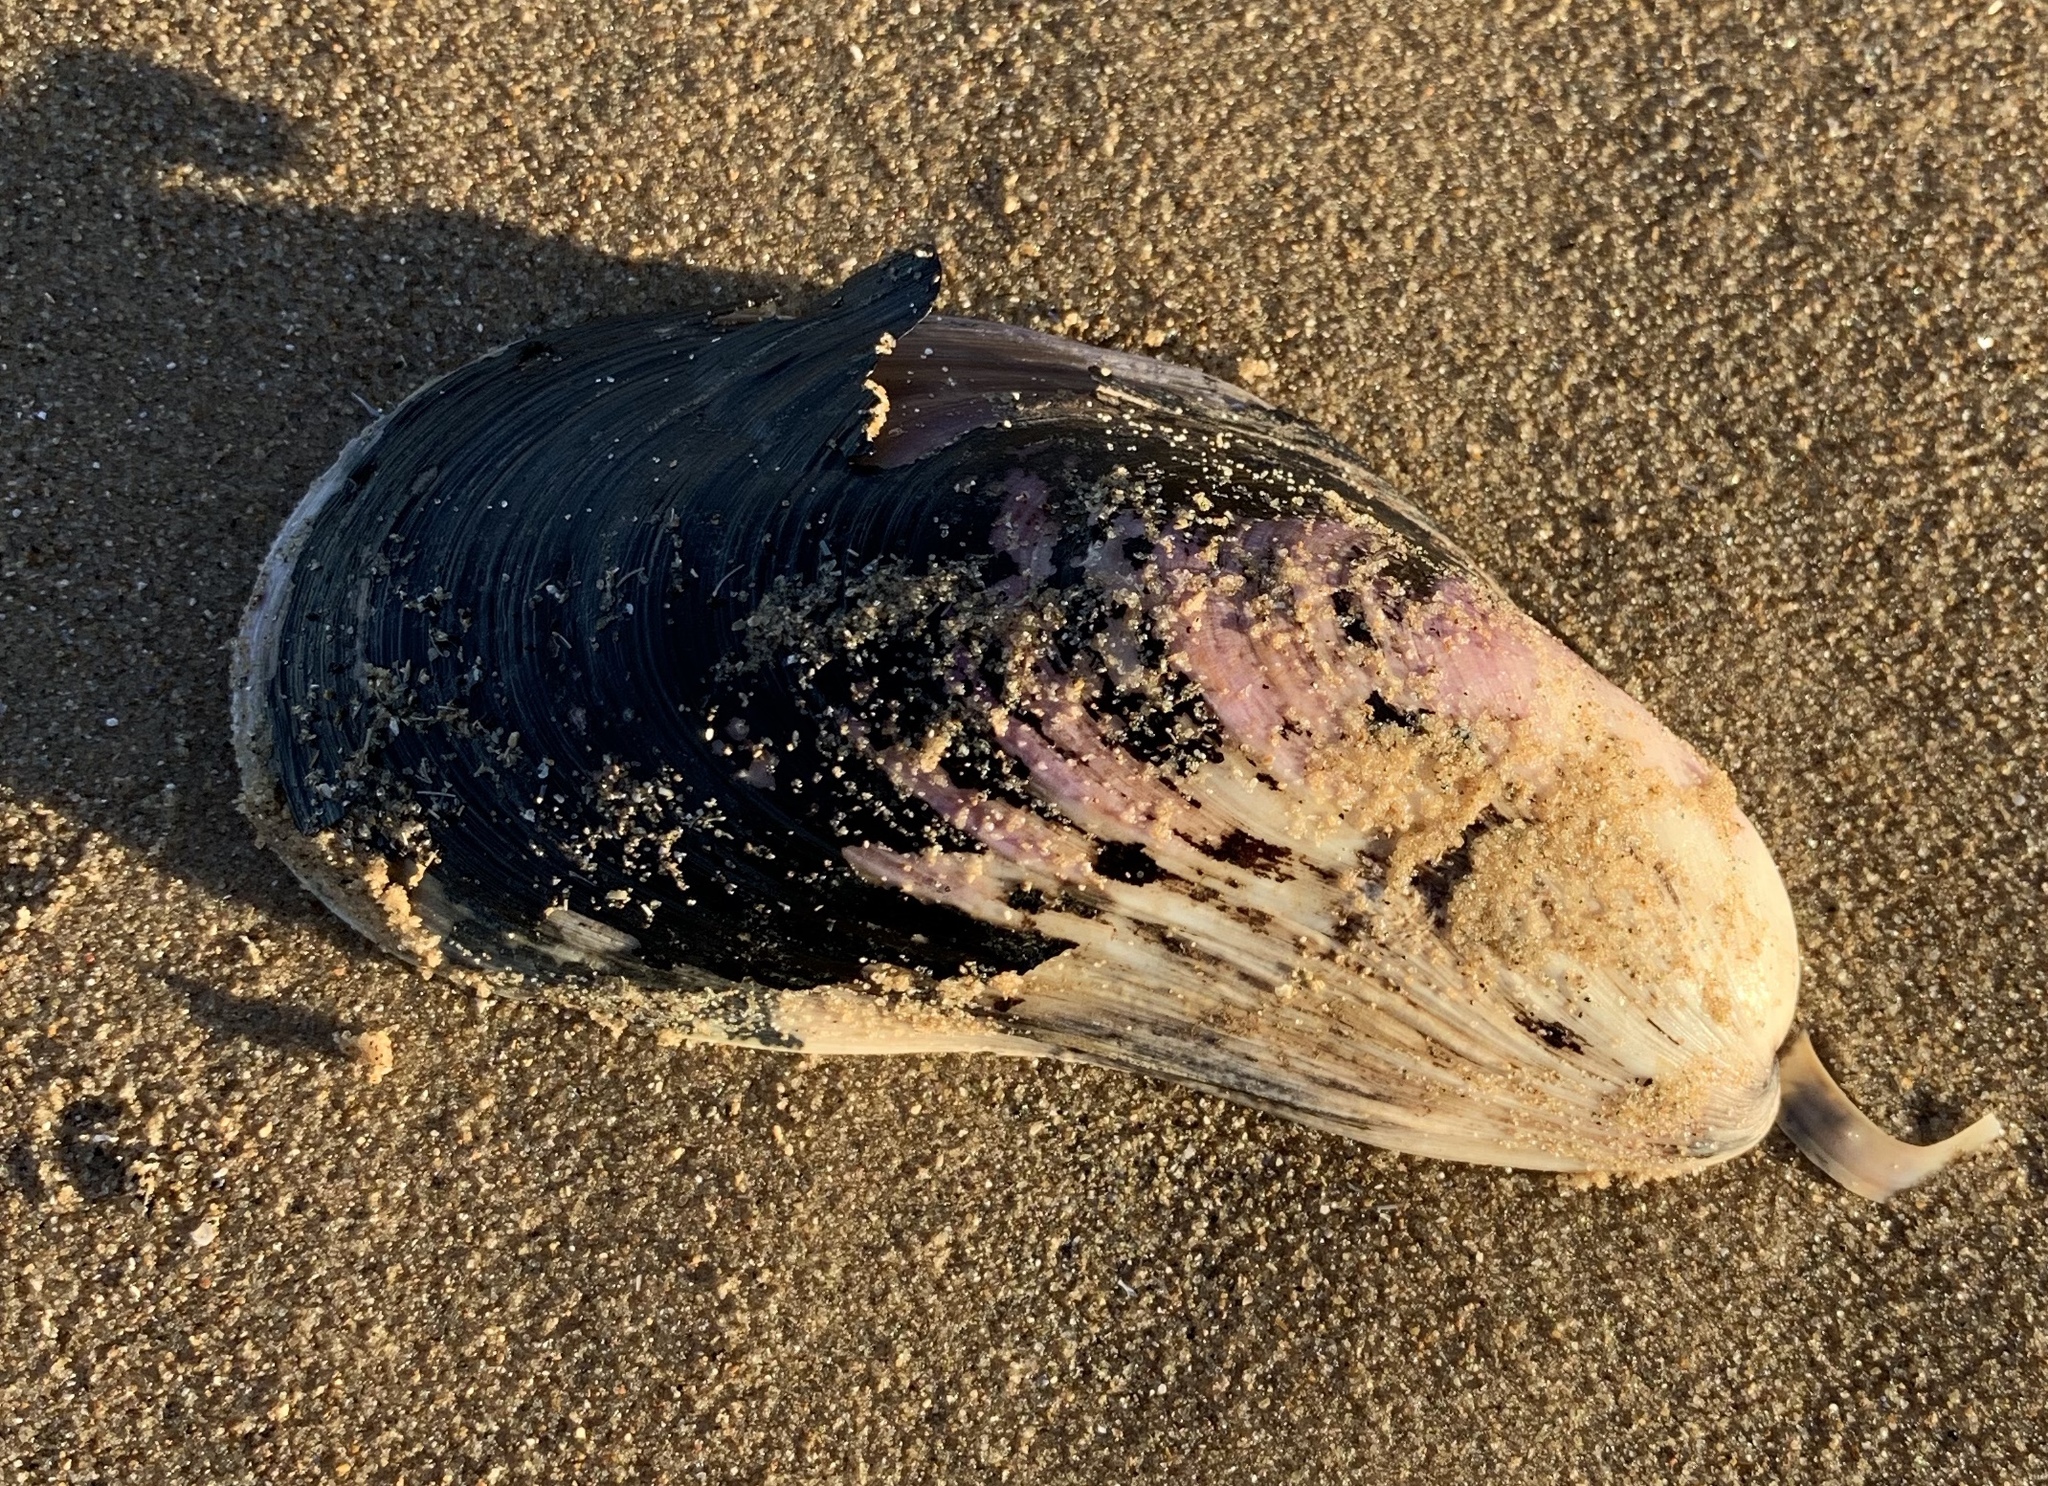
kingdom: Animalia
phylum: Mollusca
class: Bivalvia
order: Mytilida
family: Mytilidae
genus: Modiolus
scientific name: Modiolus modiolus
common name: Horse-mussel
